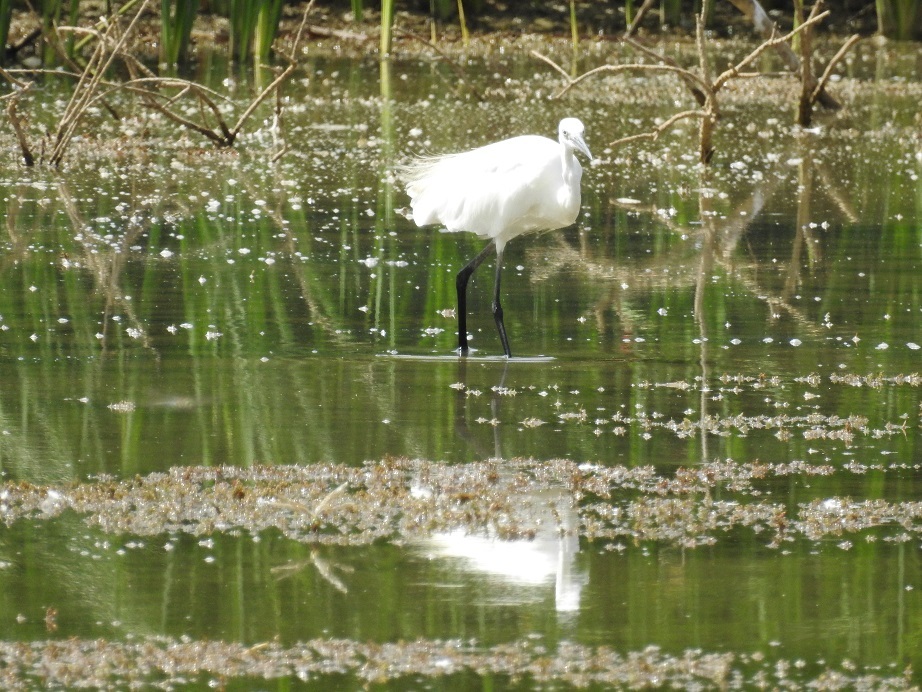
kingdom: Animalia
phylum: Chordata
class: Aves
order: Pelecaniformes
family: Ardeidae
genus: Egretta
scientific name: Egretta garzetta
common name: Little egret
